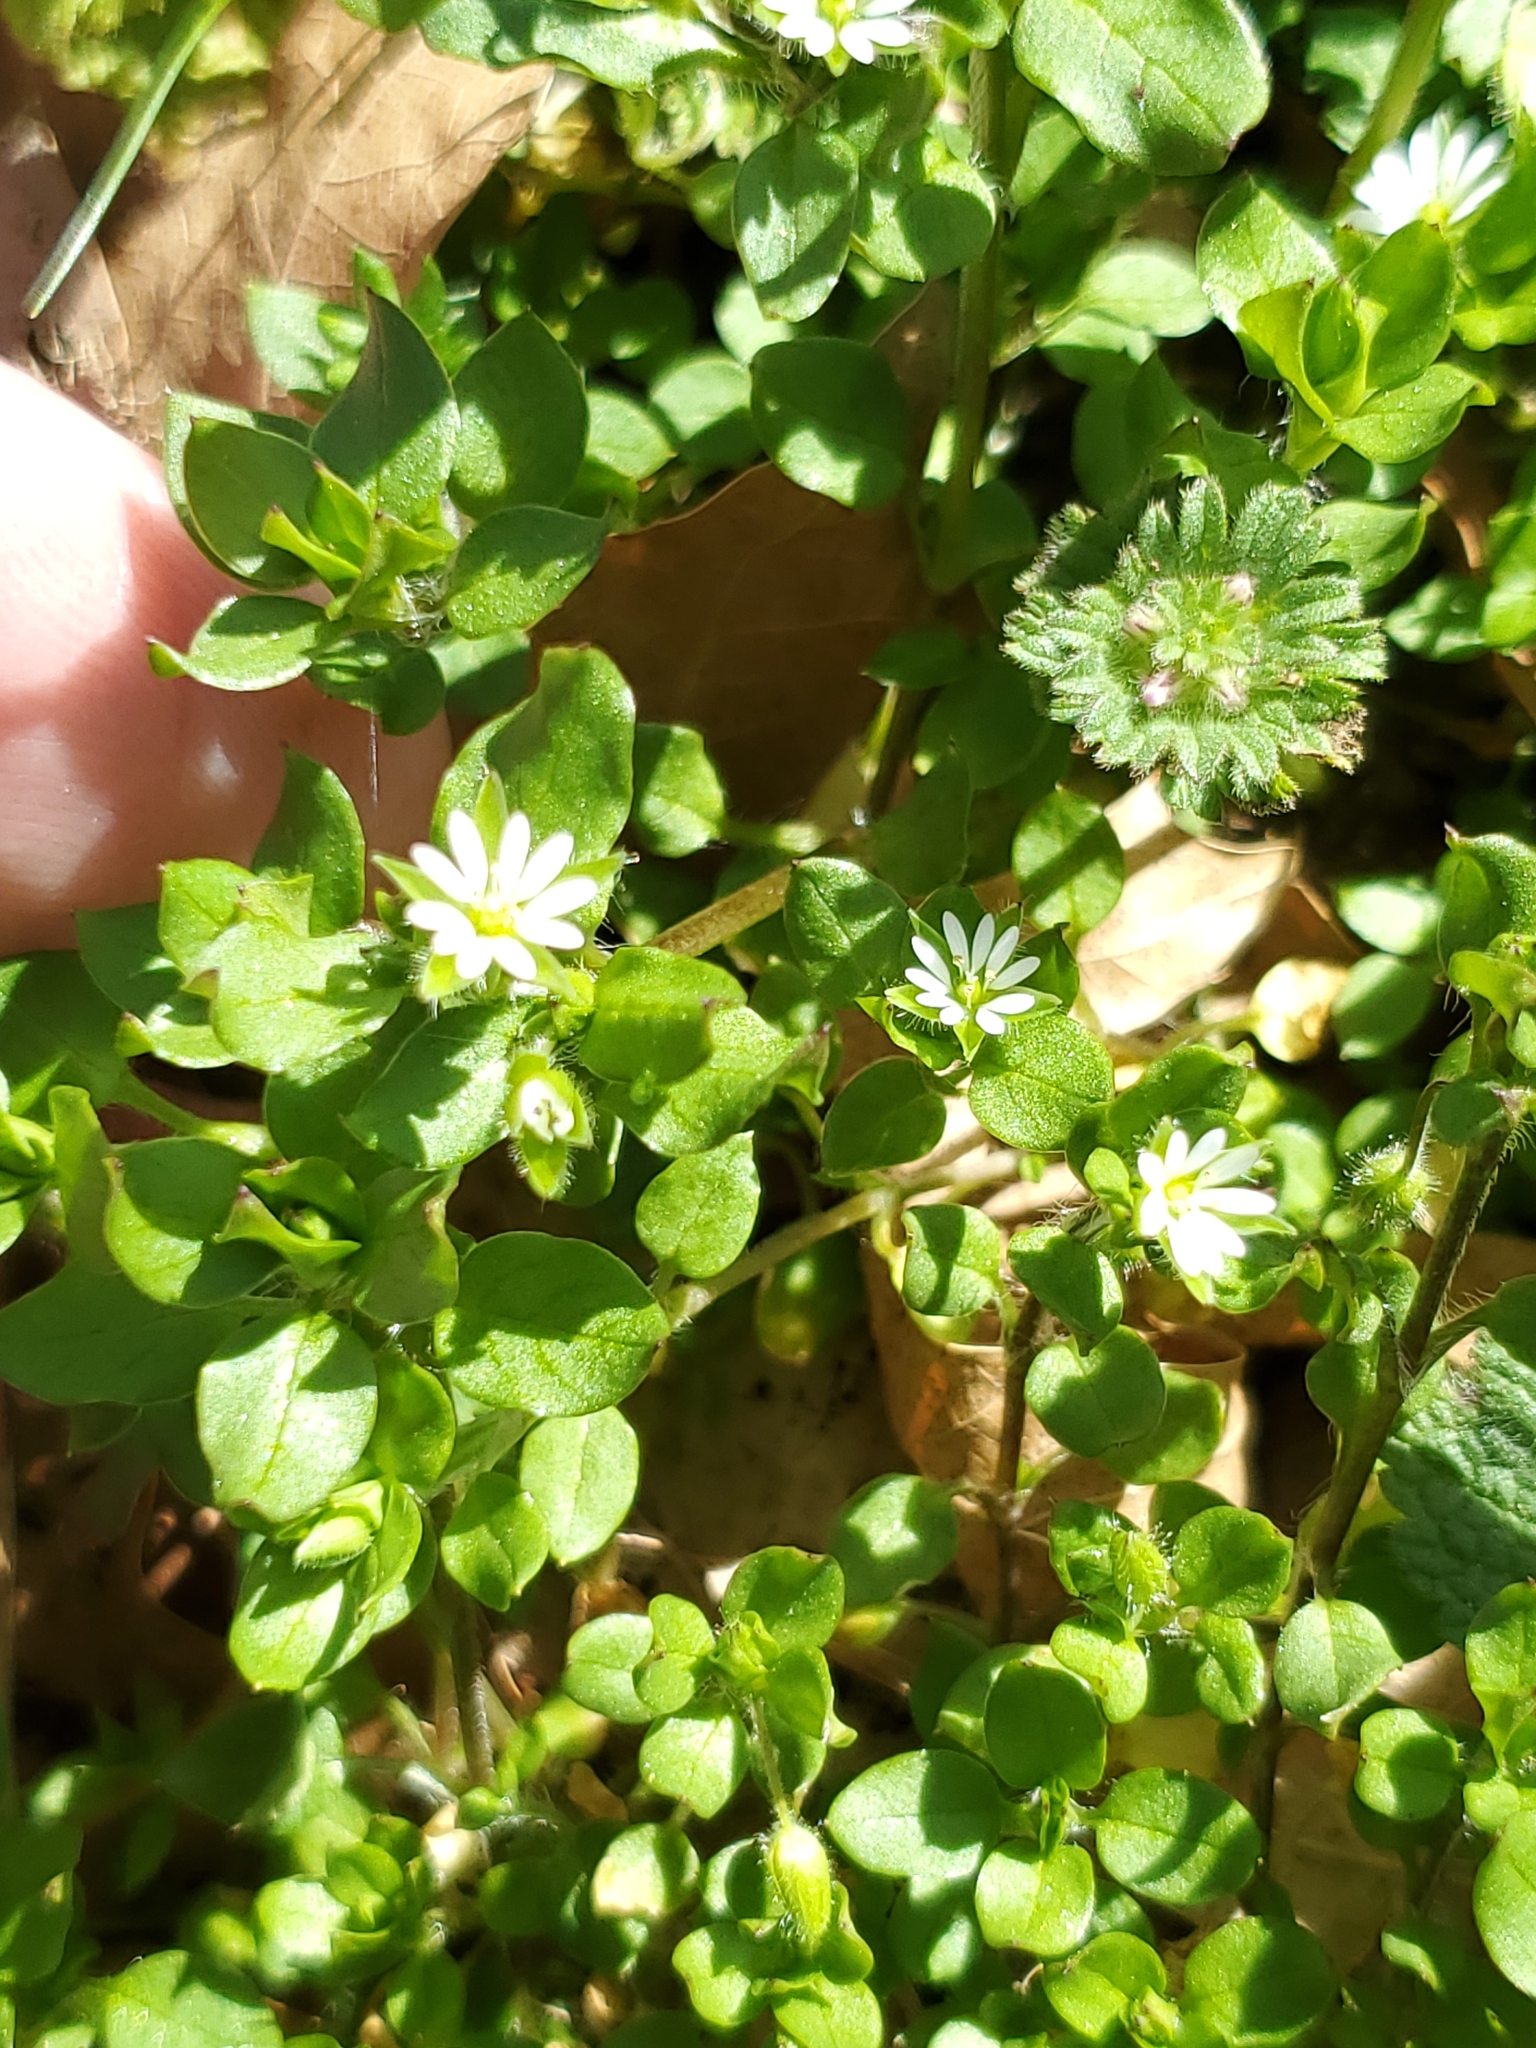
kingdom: Plantae
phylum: Tracheophyta
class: Magnoliopsida
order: Caryophyllales
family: Caryophyllaceae
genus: Stellaria
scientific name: Stellaria media
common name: Common chickweed
